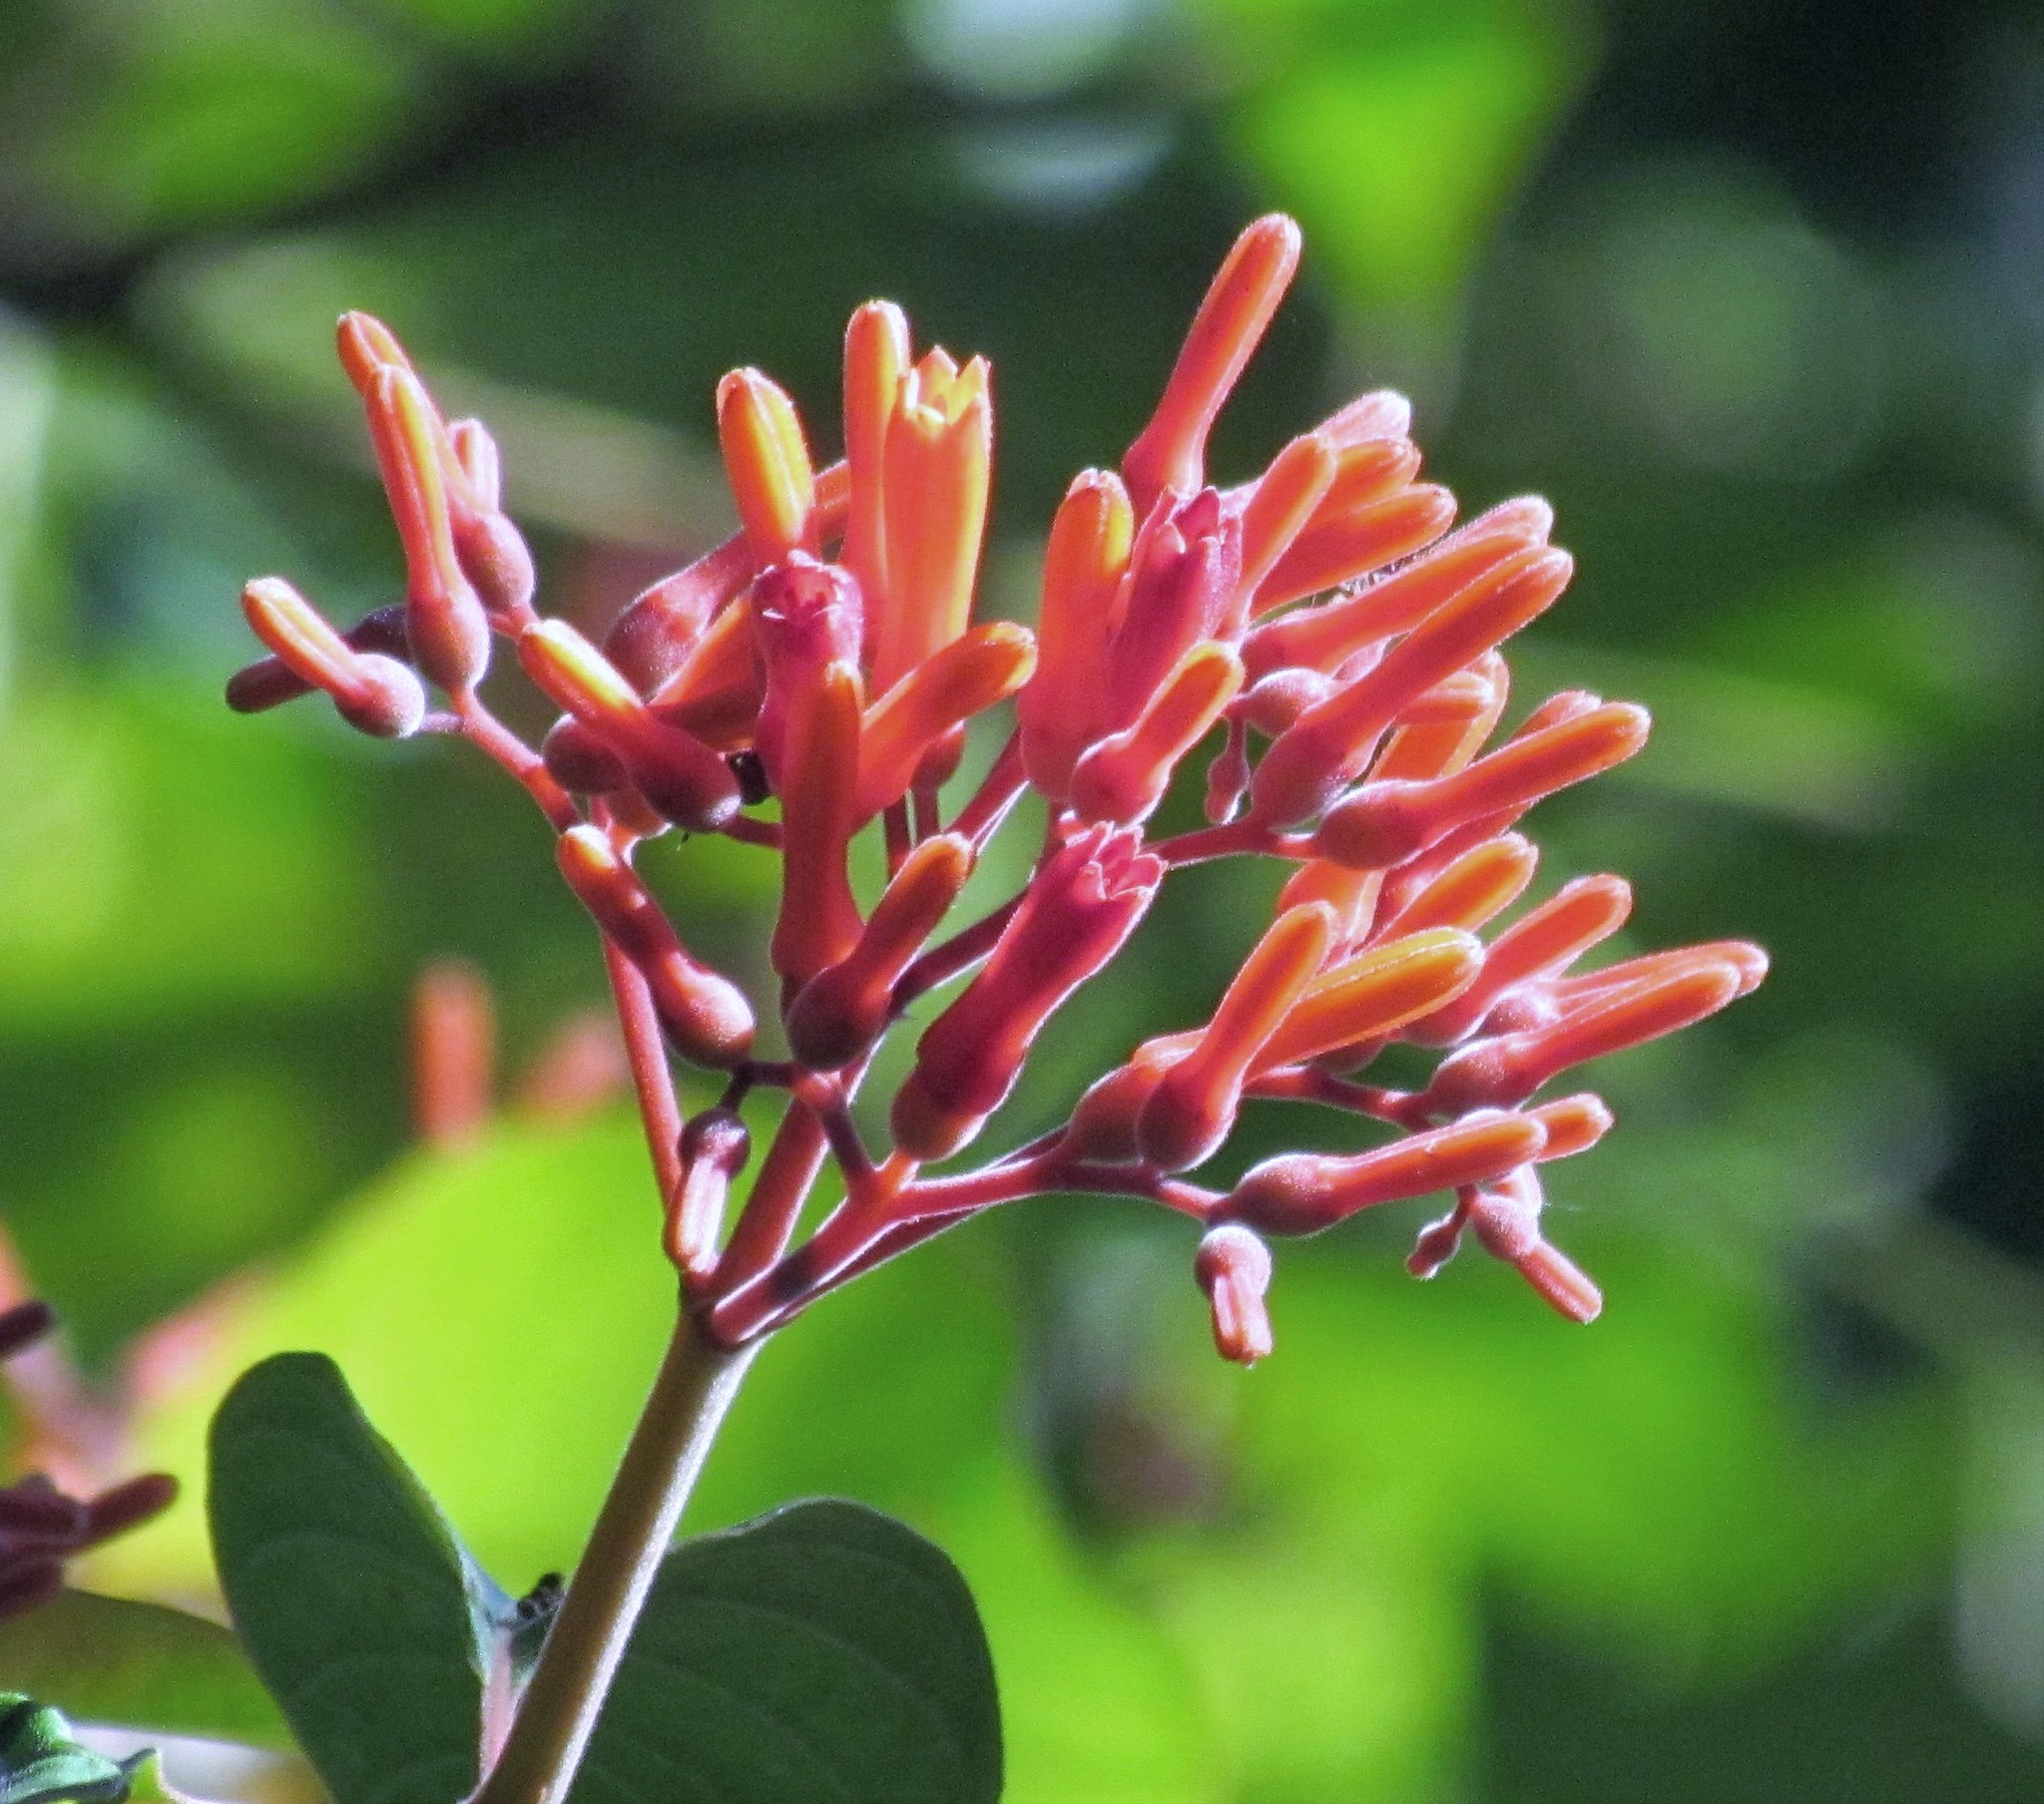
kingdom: Plantae
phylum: Tracheophyta
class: Magnoliopsida
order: Gentianales
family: Rubiaceae
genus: Hamelia
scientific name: Hamelia patens
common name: Redhead
